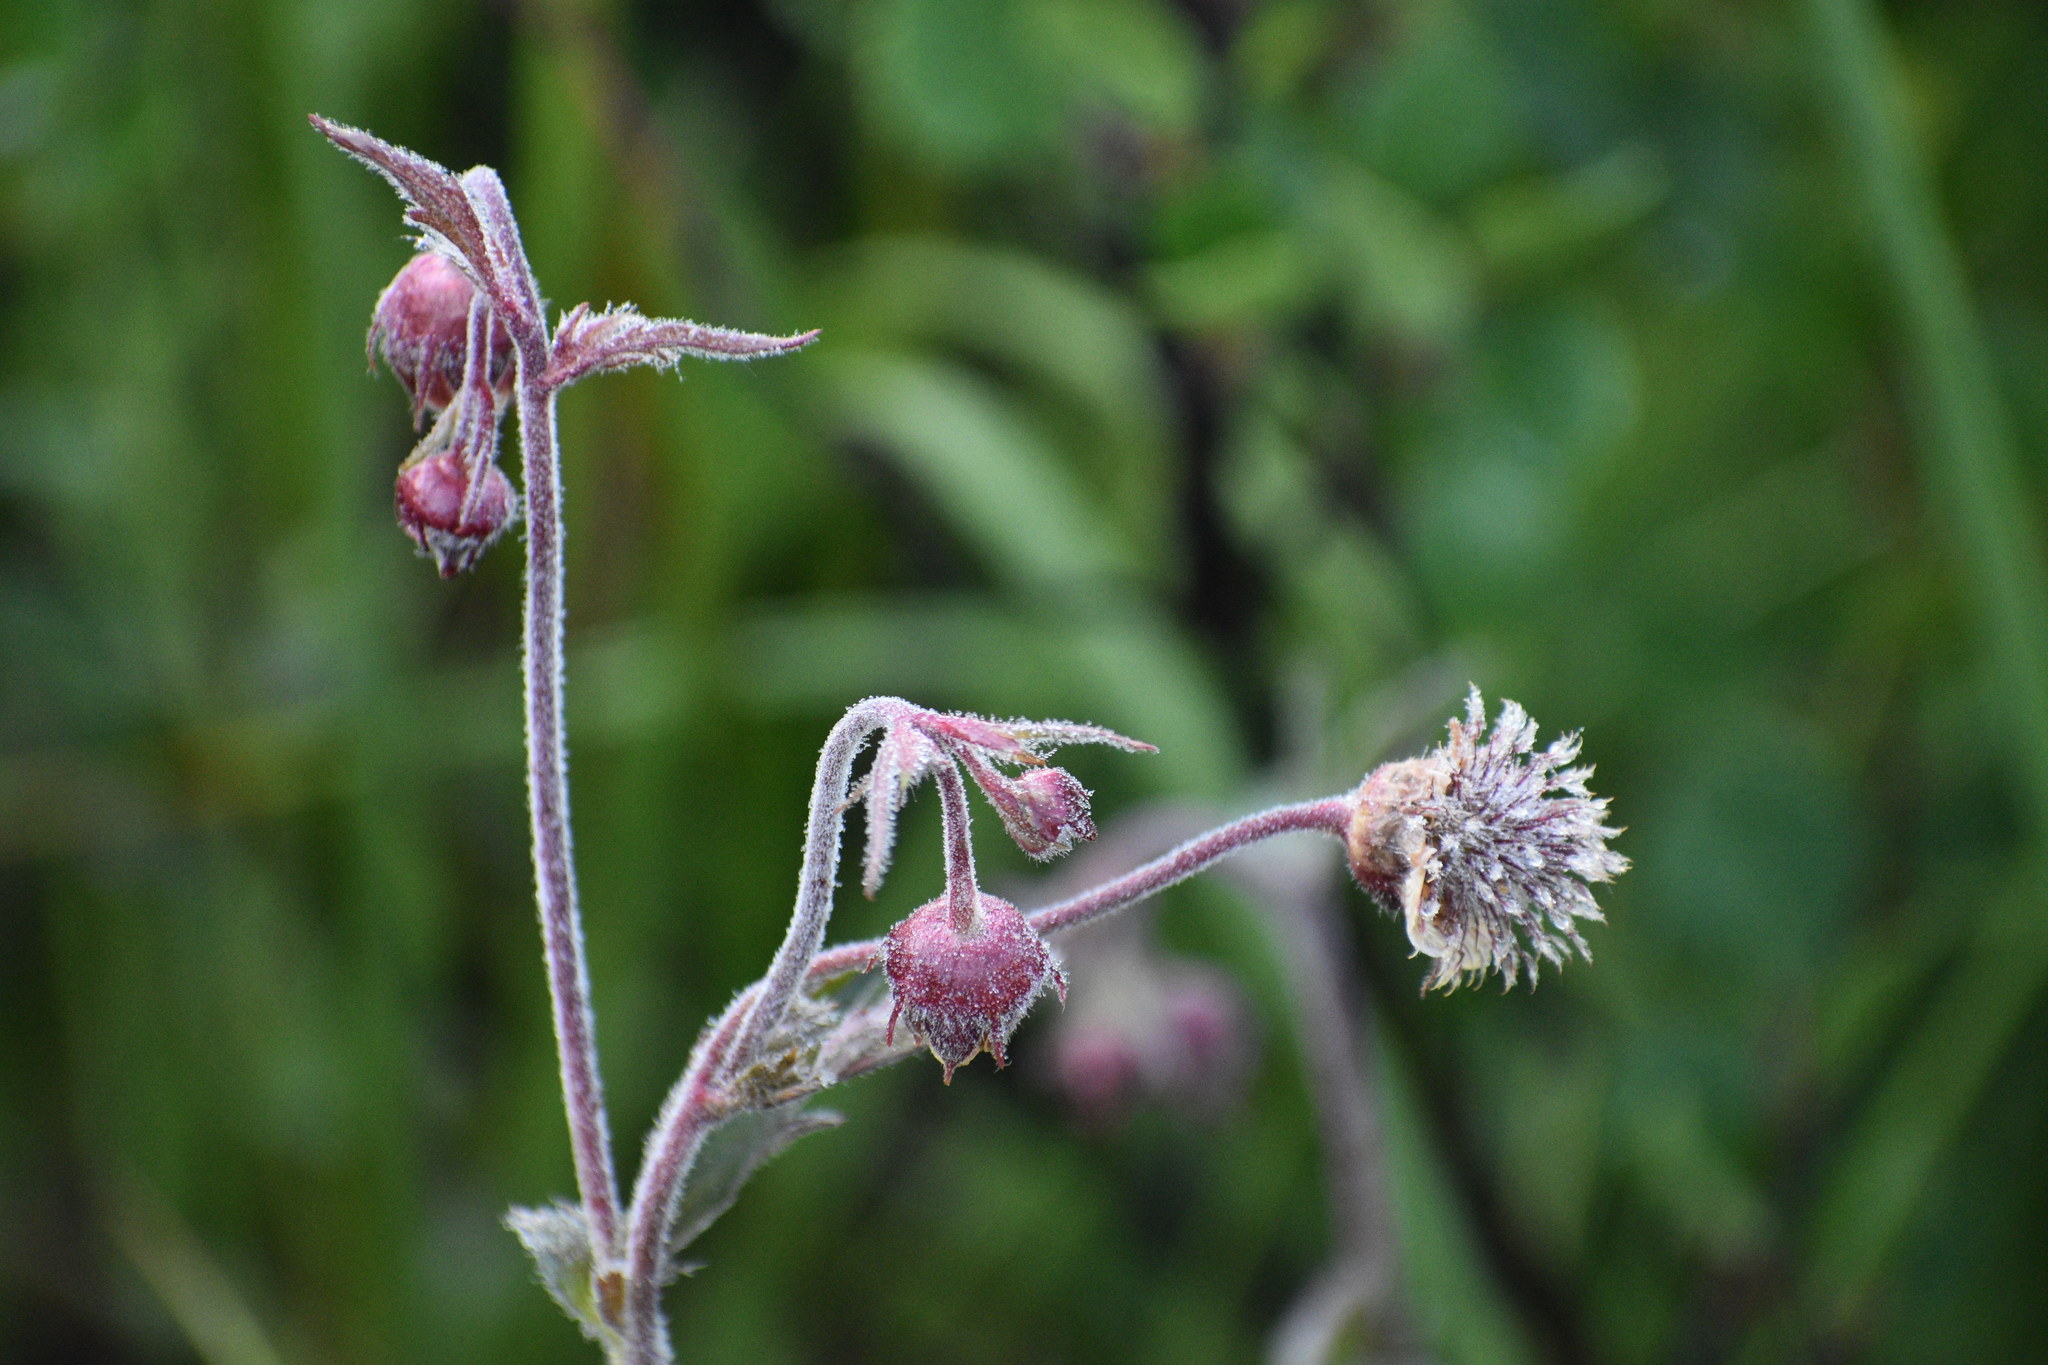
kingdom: Plantae
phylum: Tracheophyta
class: Magnoliopsida
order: Rosales
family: Rosaceae
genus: Geum
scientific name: Geum rivale
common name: Water avens
